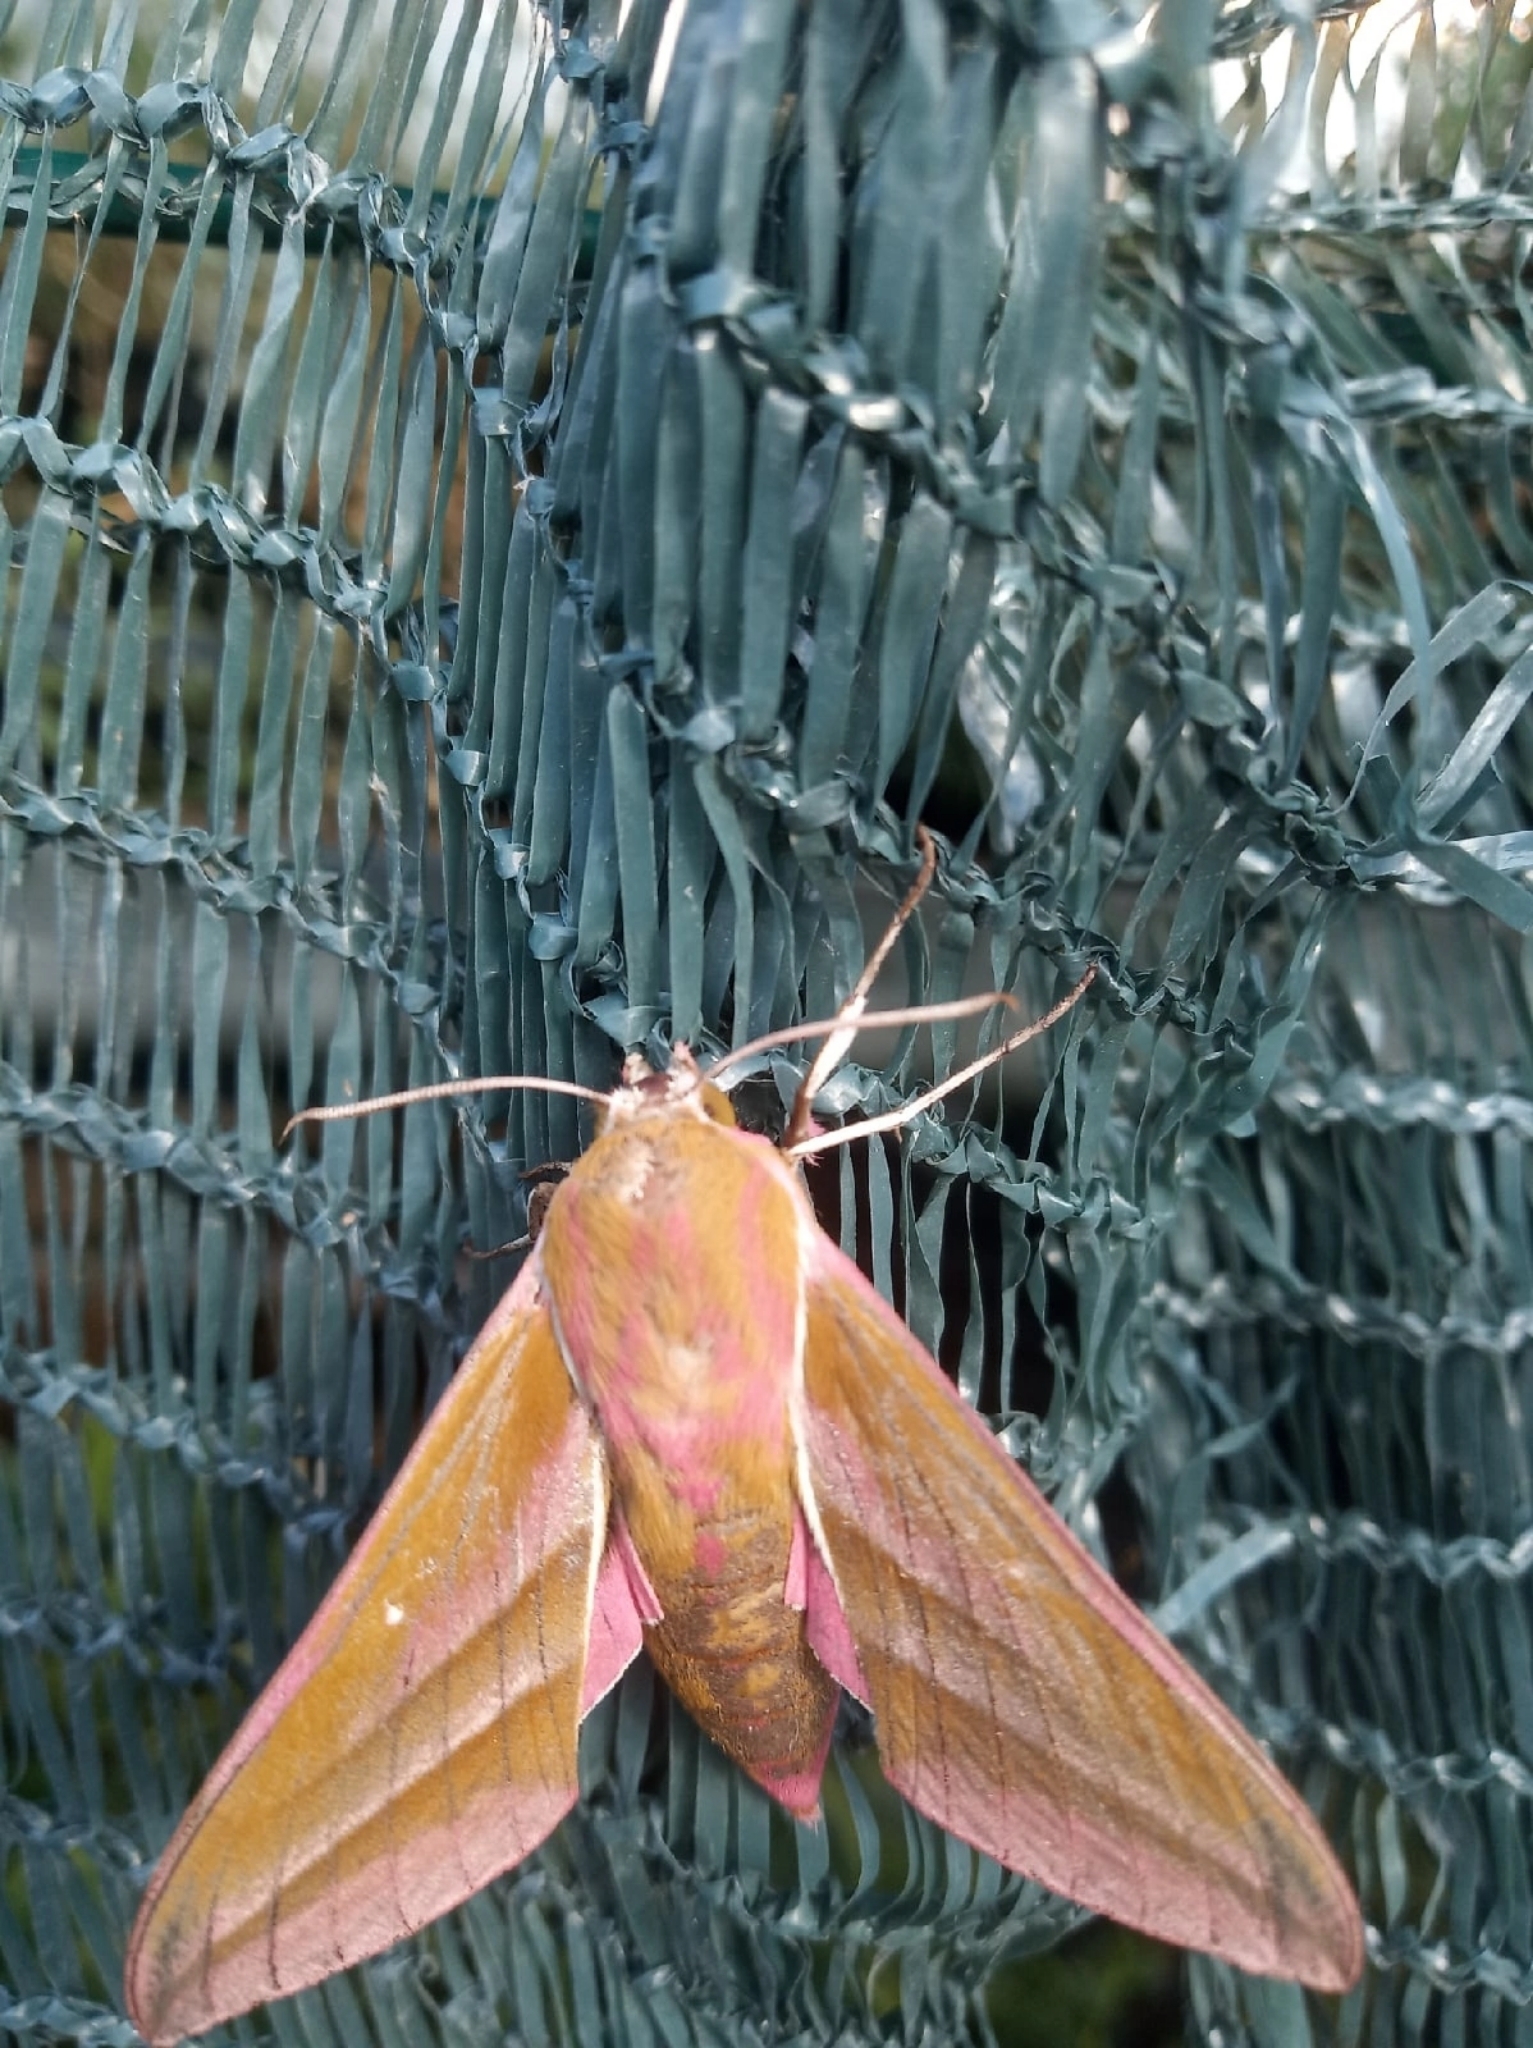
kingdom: Animalia
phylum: Arthropoda
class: Insecta
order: Lepidoptera
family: Sphingidae
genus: Deilephila
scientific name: Deilephila elpenor
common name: Elephant hawk-moth
